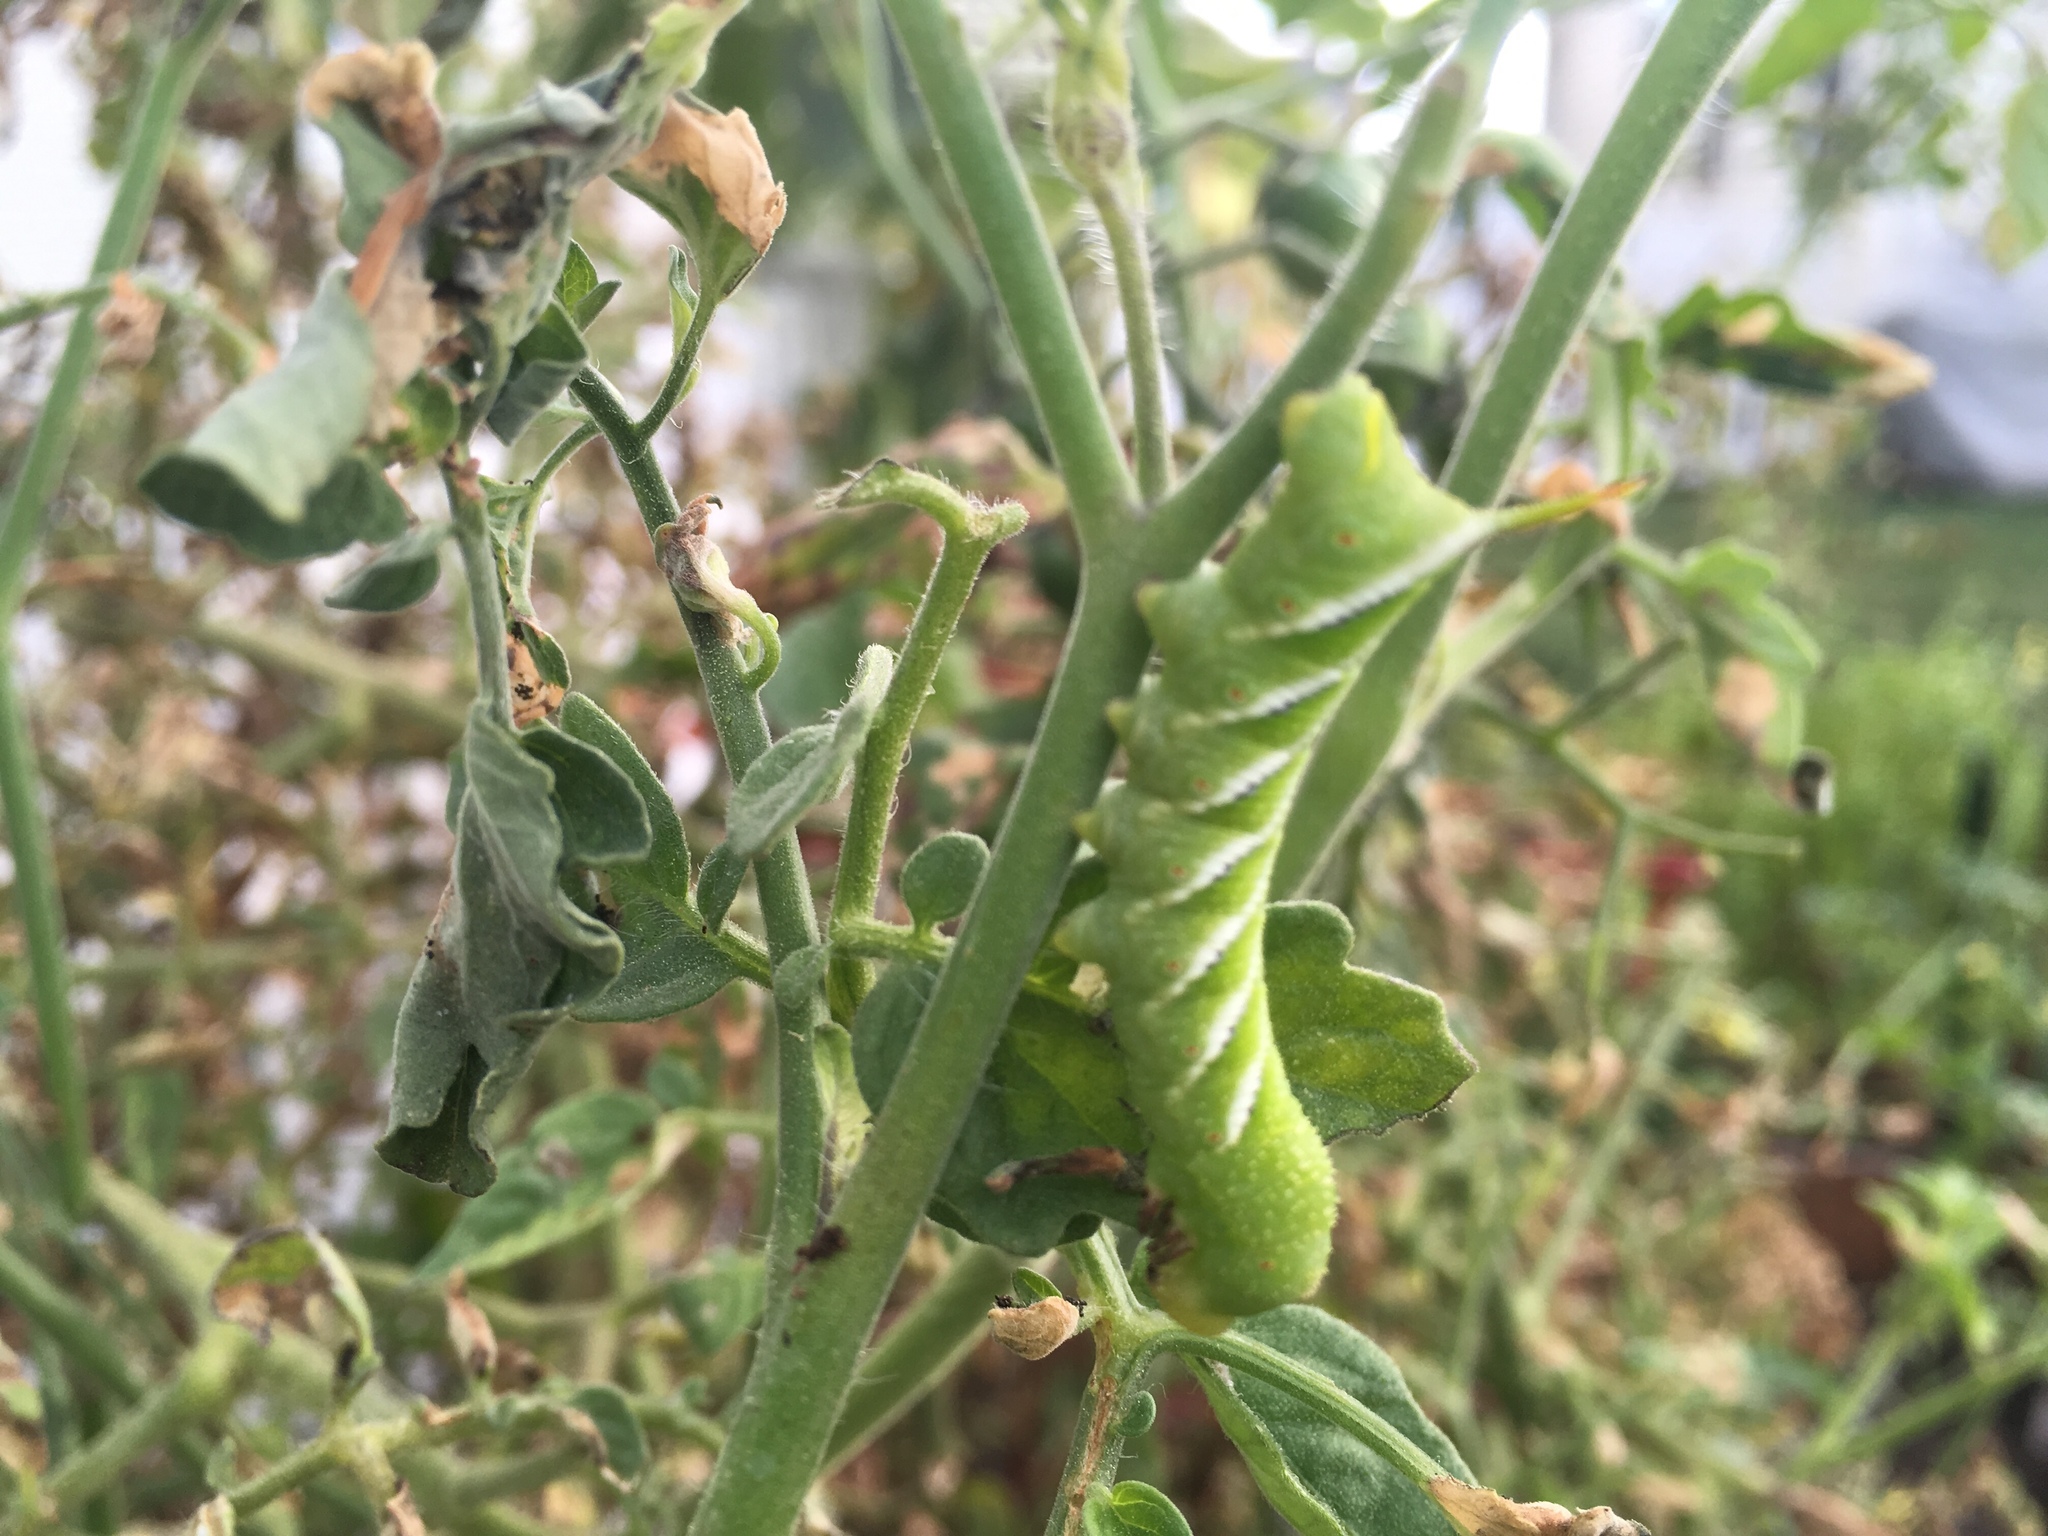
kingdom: Animalia
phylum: Arthropoda
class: Insecta
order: Lepidoptera
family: Sphingidae
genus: Manduca
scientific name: Manduca sexta
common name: Carolina sphinx
